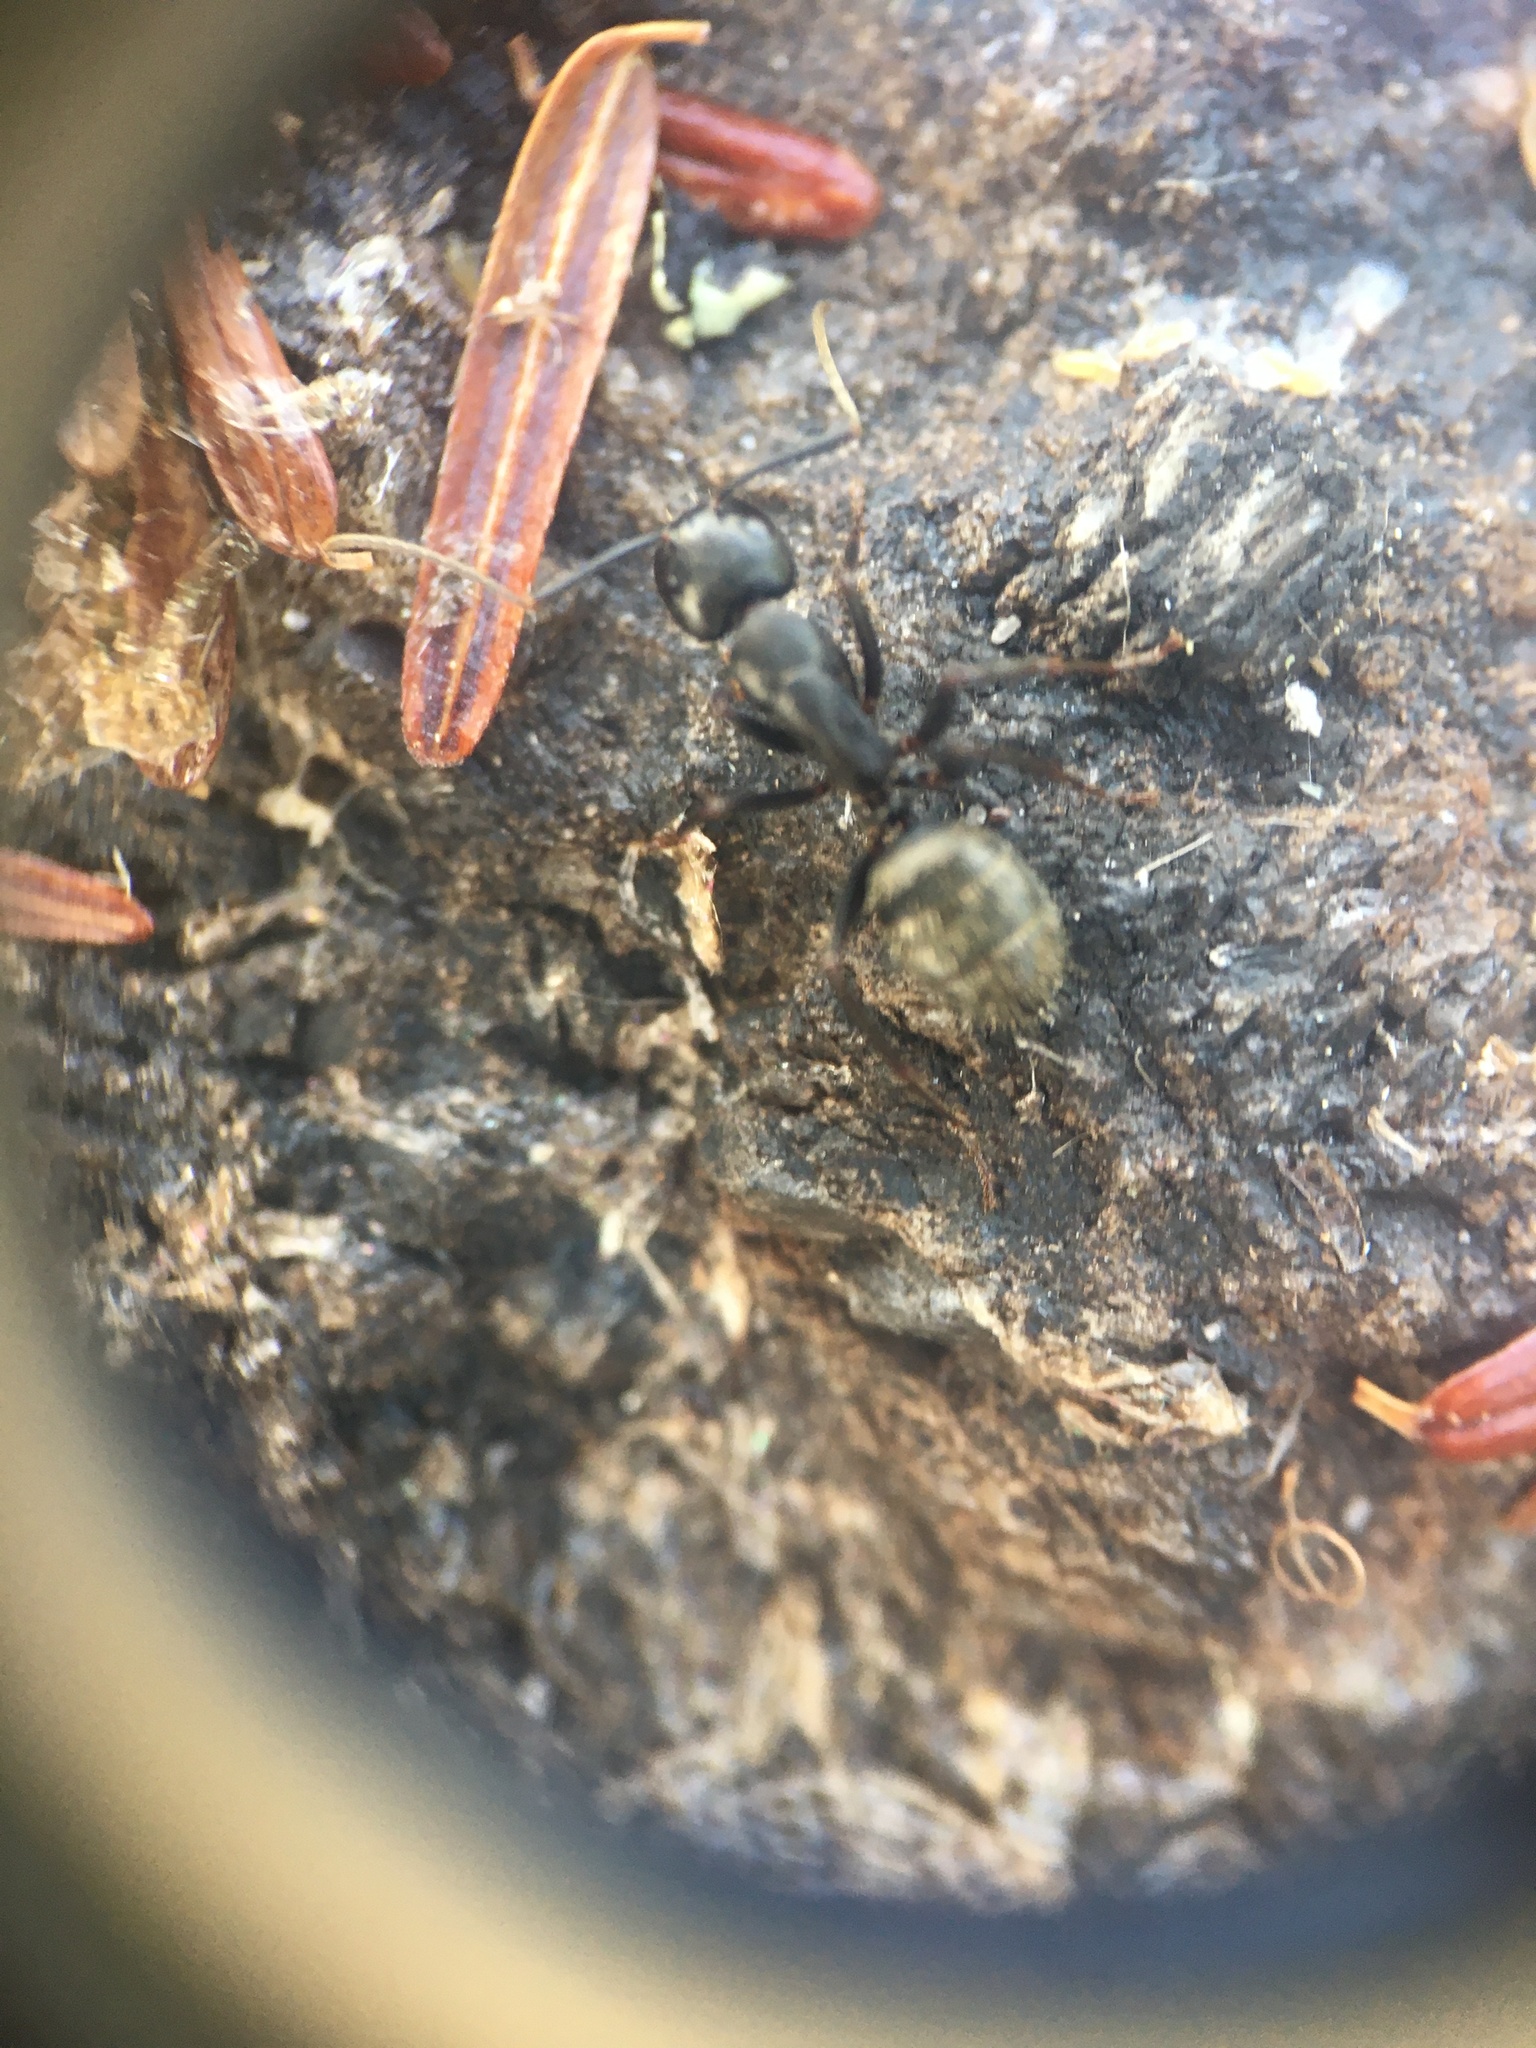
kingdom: Animalia
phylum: Arthropoda
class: Insecta
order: Hymenoptera
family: Formicidae
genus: Camponotus
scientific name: Camponotus pennsylvanicus
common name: Black carpenter ant
